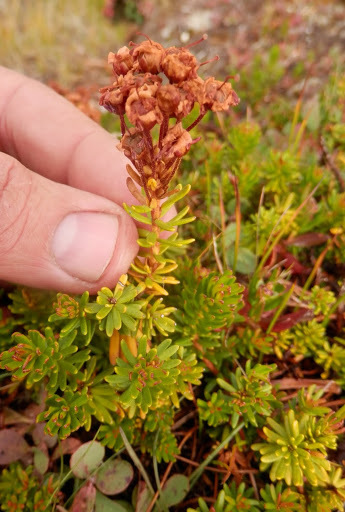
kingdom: Plantae
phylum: Tracheophyta
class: Magnoliopsida
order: Ericales
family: Ericaceae
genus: Phyllodoce
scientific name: Phyllodoce breweri
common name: Brewer's mountain-heather
